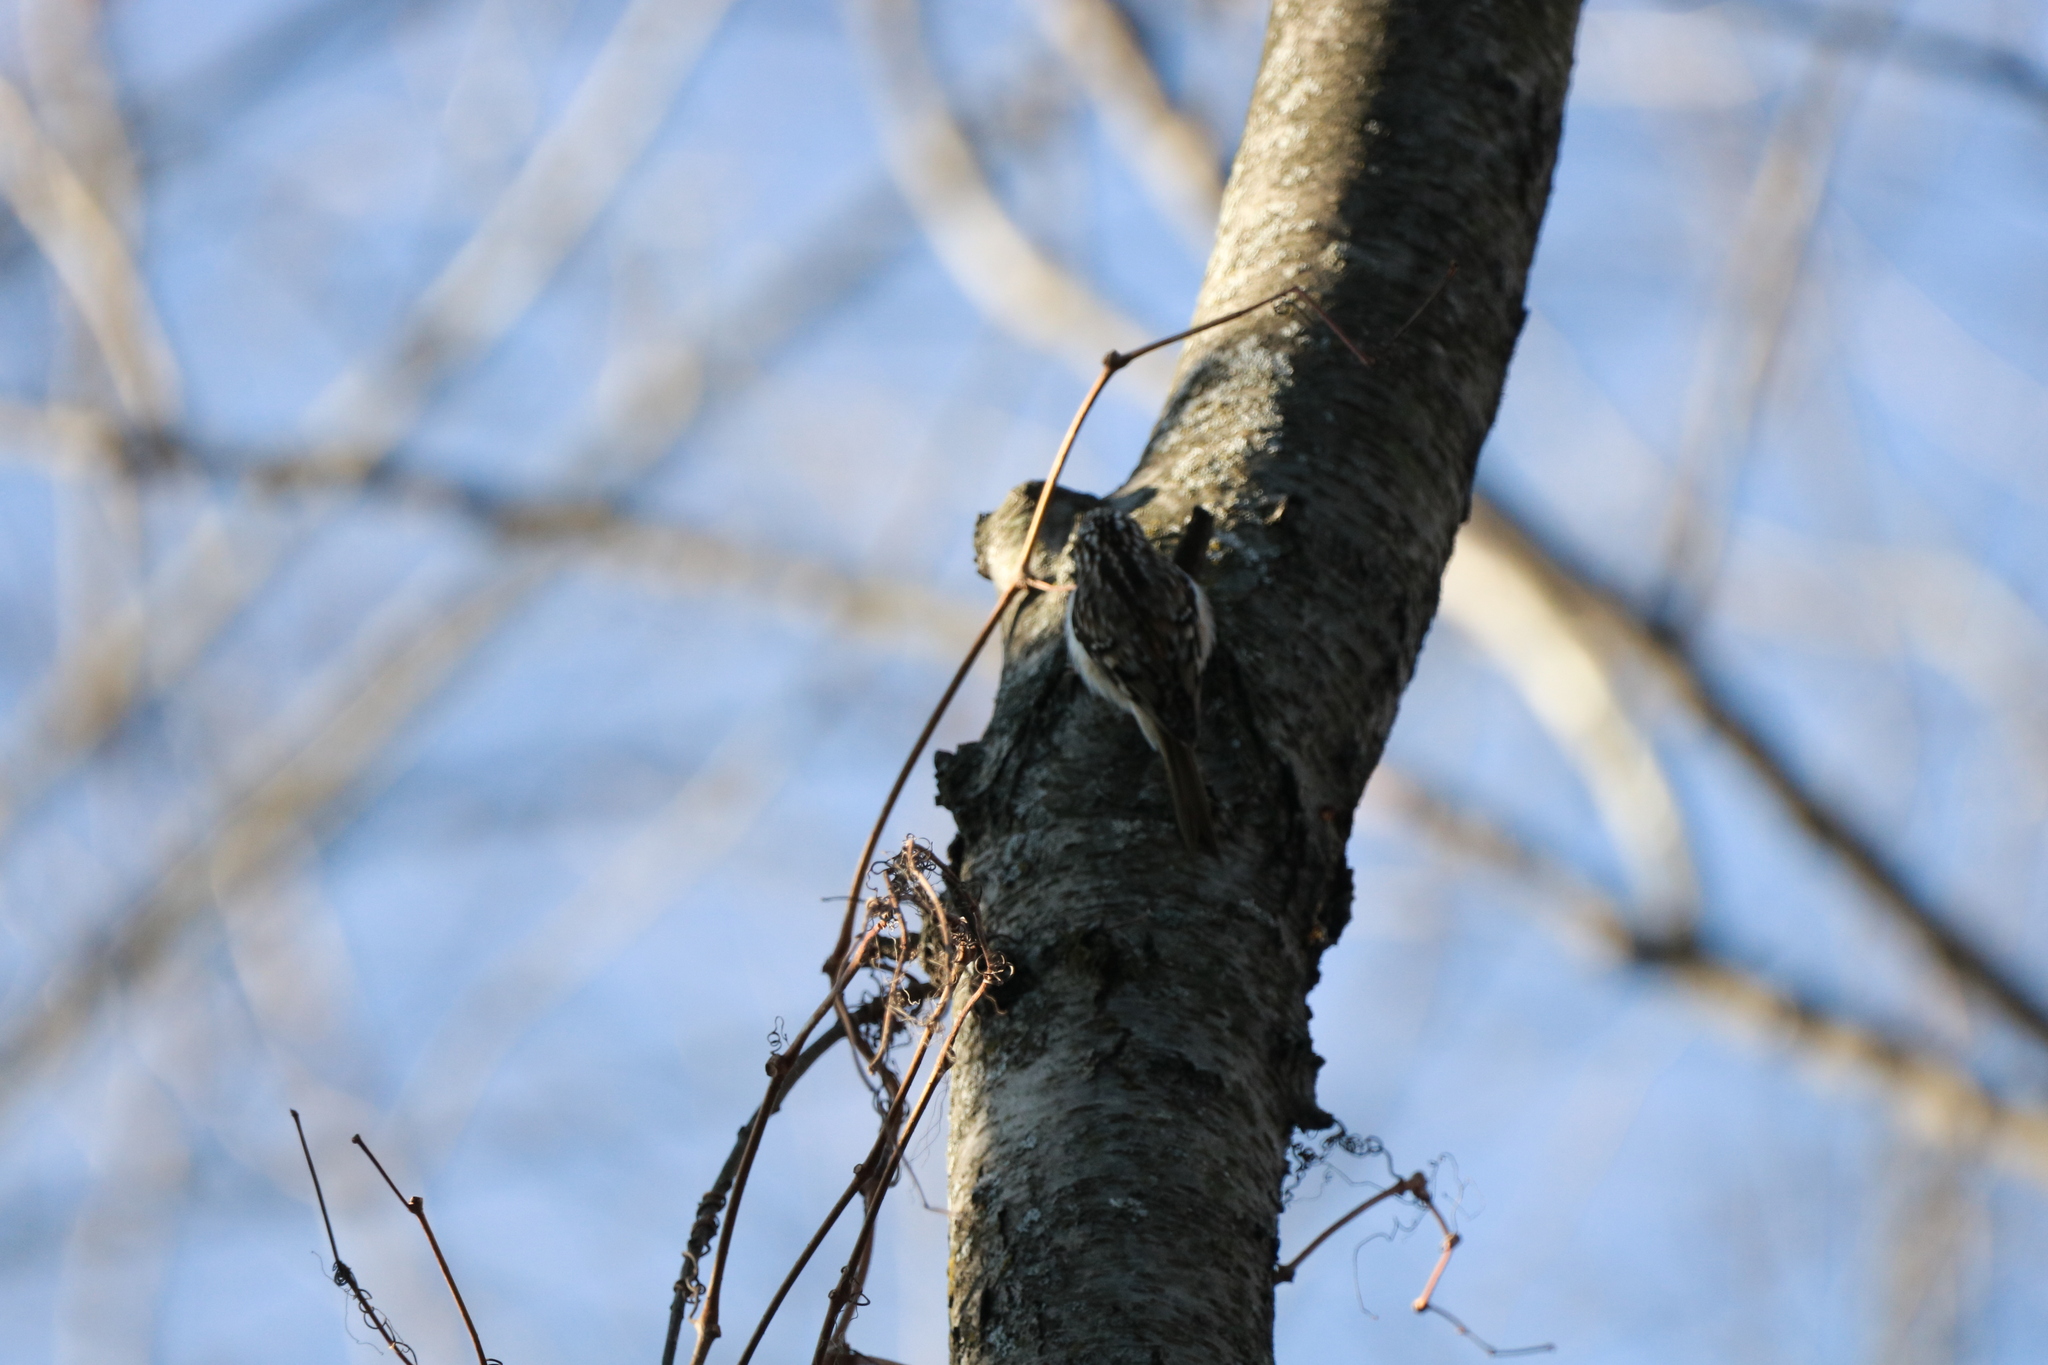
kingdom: Animalia
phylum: Chordata
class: Aves
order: Passeriformes
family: Certhiidae
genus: Certhia
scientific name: Certhia americana
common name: Brown creeper
